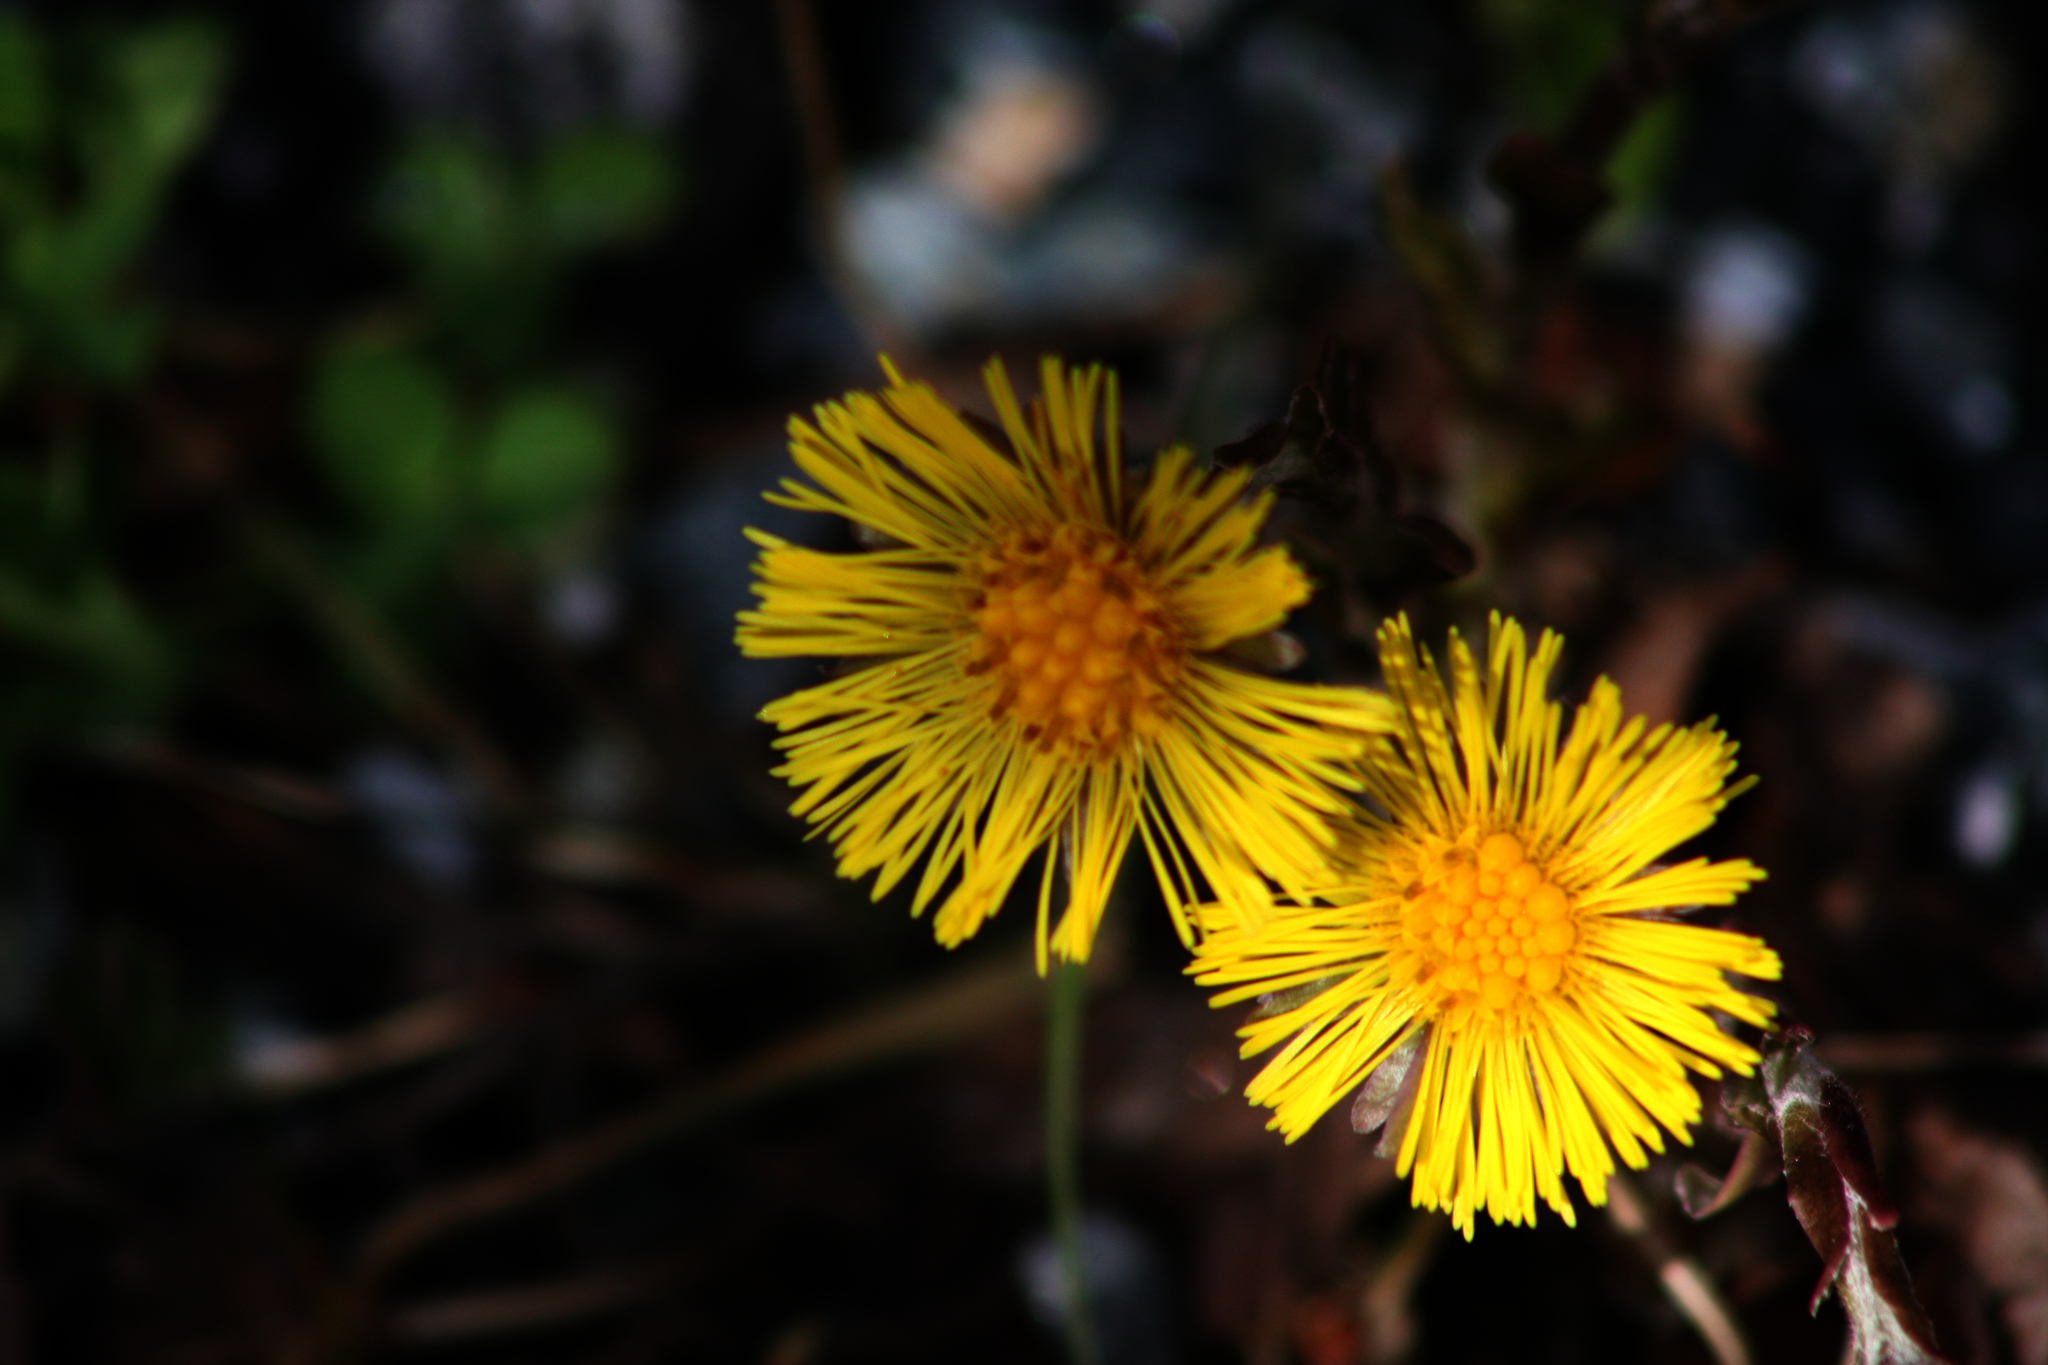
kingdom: Plantae
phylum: Tracheophyta
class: Magnoliopsida
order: Asterales
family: Asteraceae
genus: Tussilago
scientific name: Tussilago farfara
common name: Coltsfoot
